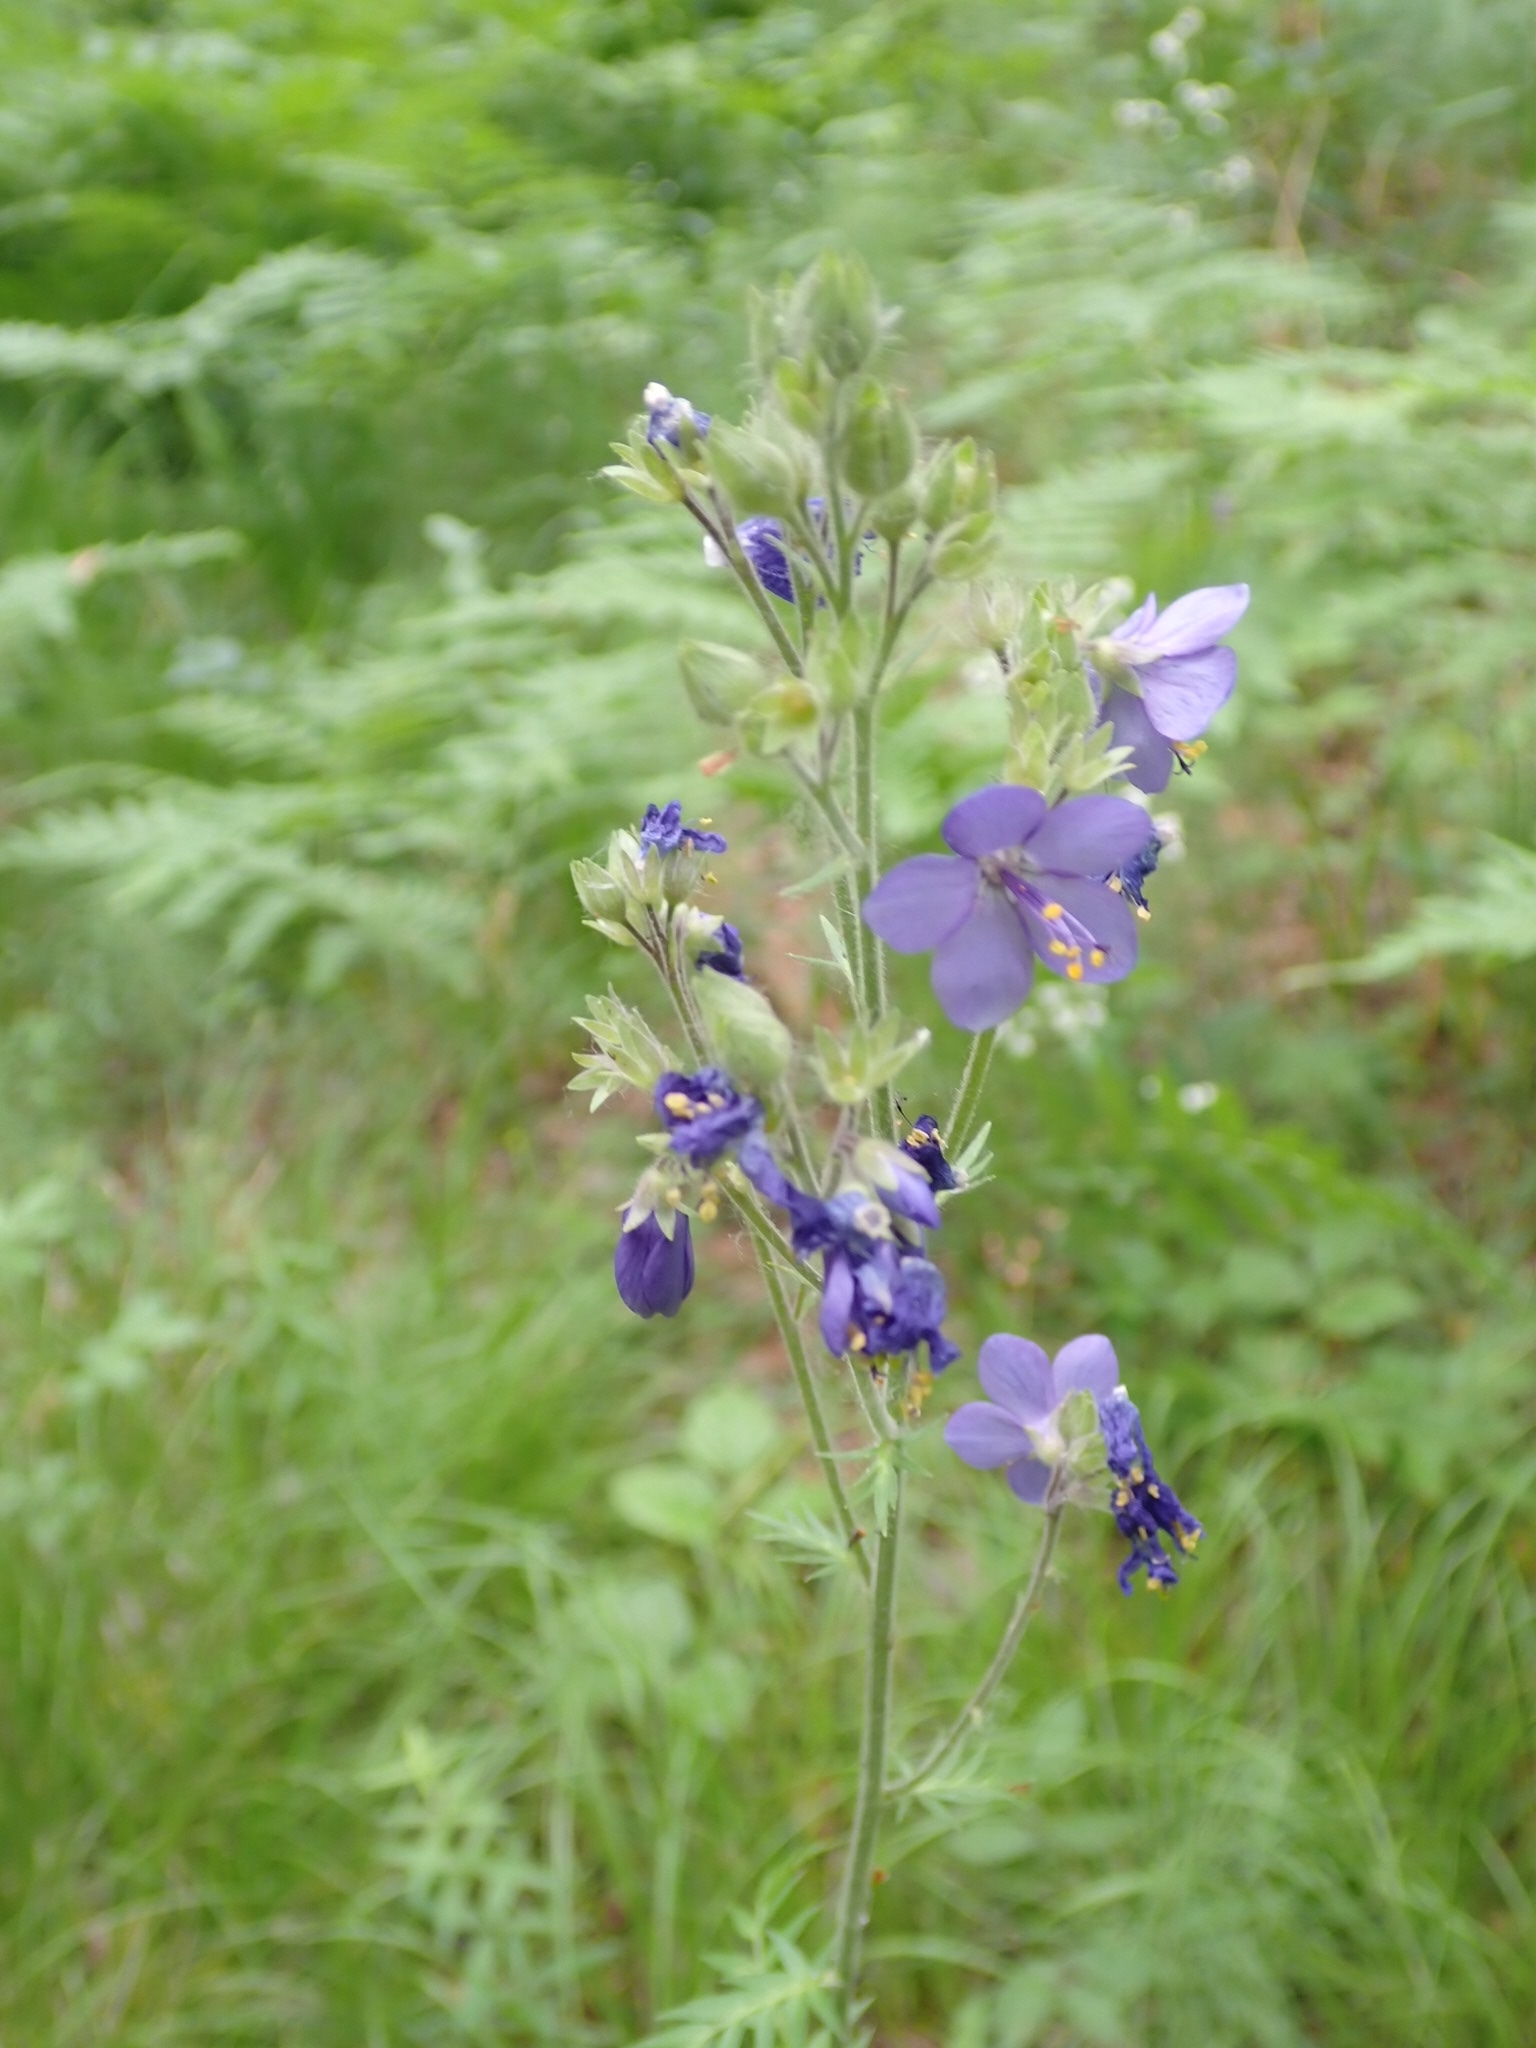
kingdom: Plantae
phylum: Tracheophyta
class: Magnoliopsida
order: Ericales
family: Polemoniaceae
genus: Polemonium
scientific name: Polemonium caeruleum
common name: Jacob's-ladder
